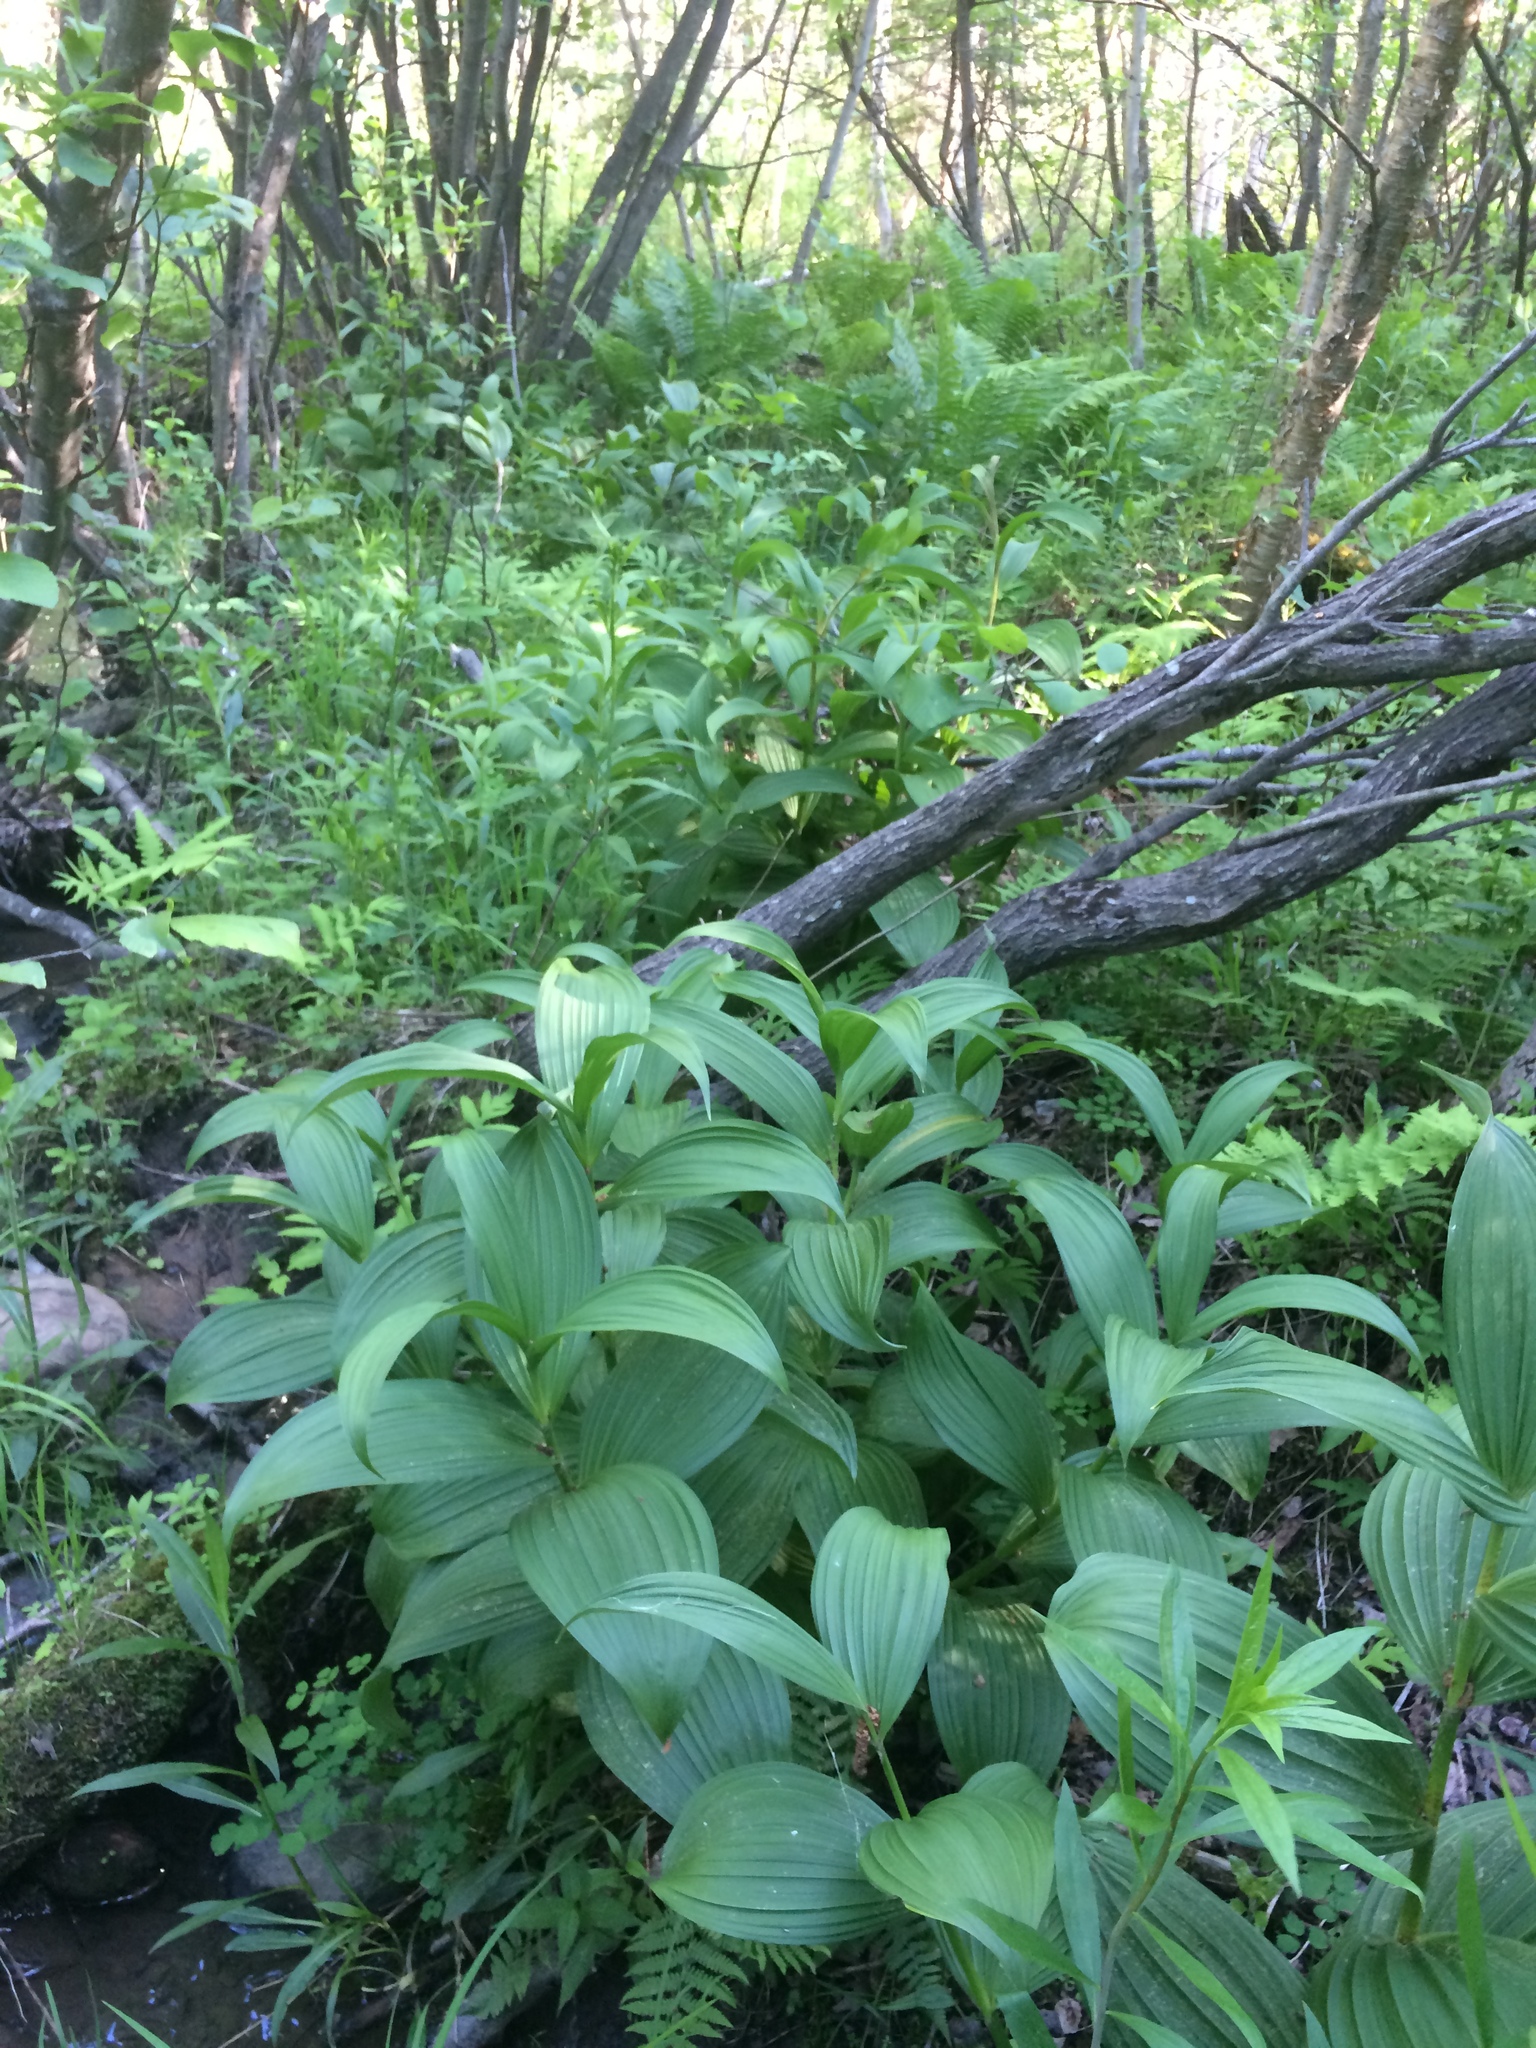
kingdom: Plantae
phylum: Tracheophyta
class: Liliopsida
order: Liliales
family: Melanthiaceae
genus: Veratrum
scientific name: Veratrum viride
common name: American false hellebore
